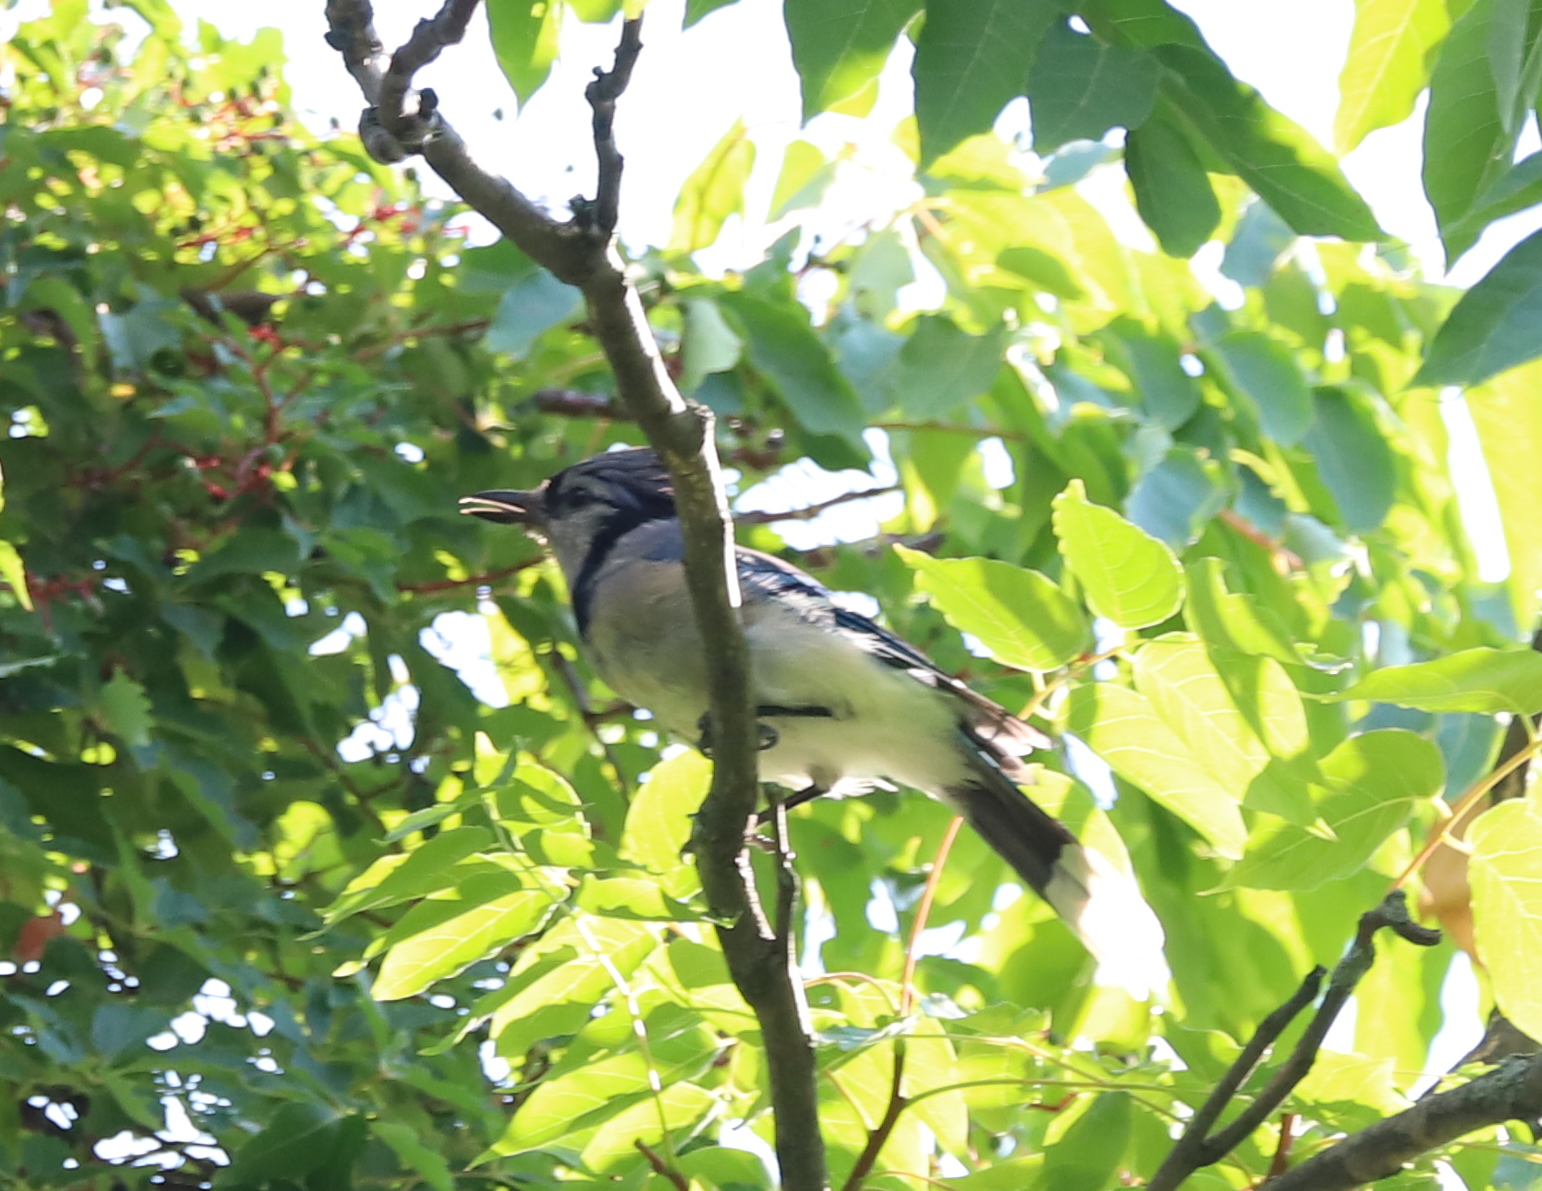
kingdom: Animalia
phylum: Chordata
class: Aves
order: Passeriformes
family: Corvidae
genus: Cyanocitta
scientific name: Cyanocitta cristata
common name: Blue jay
